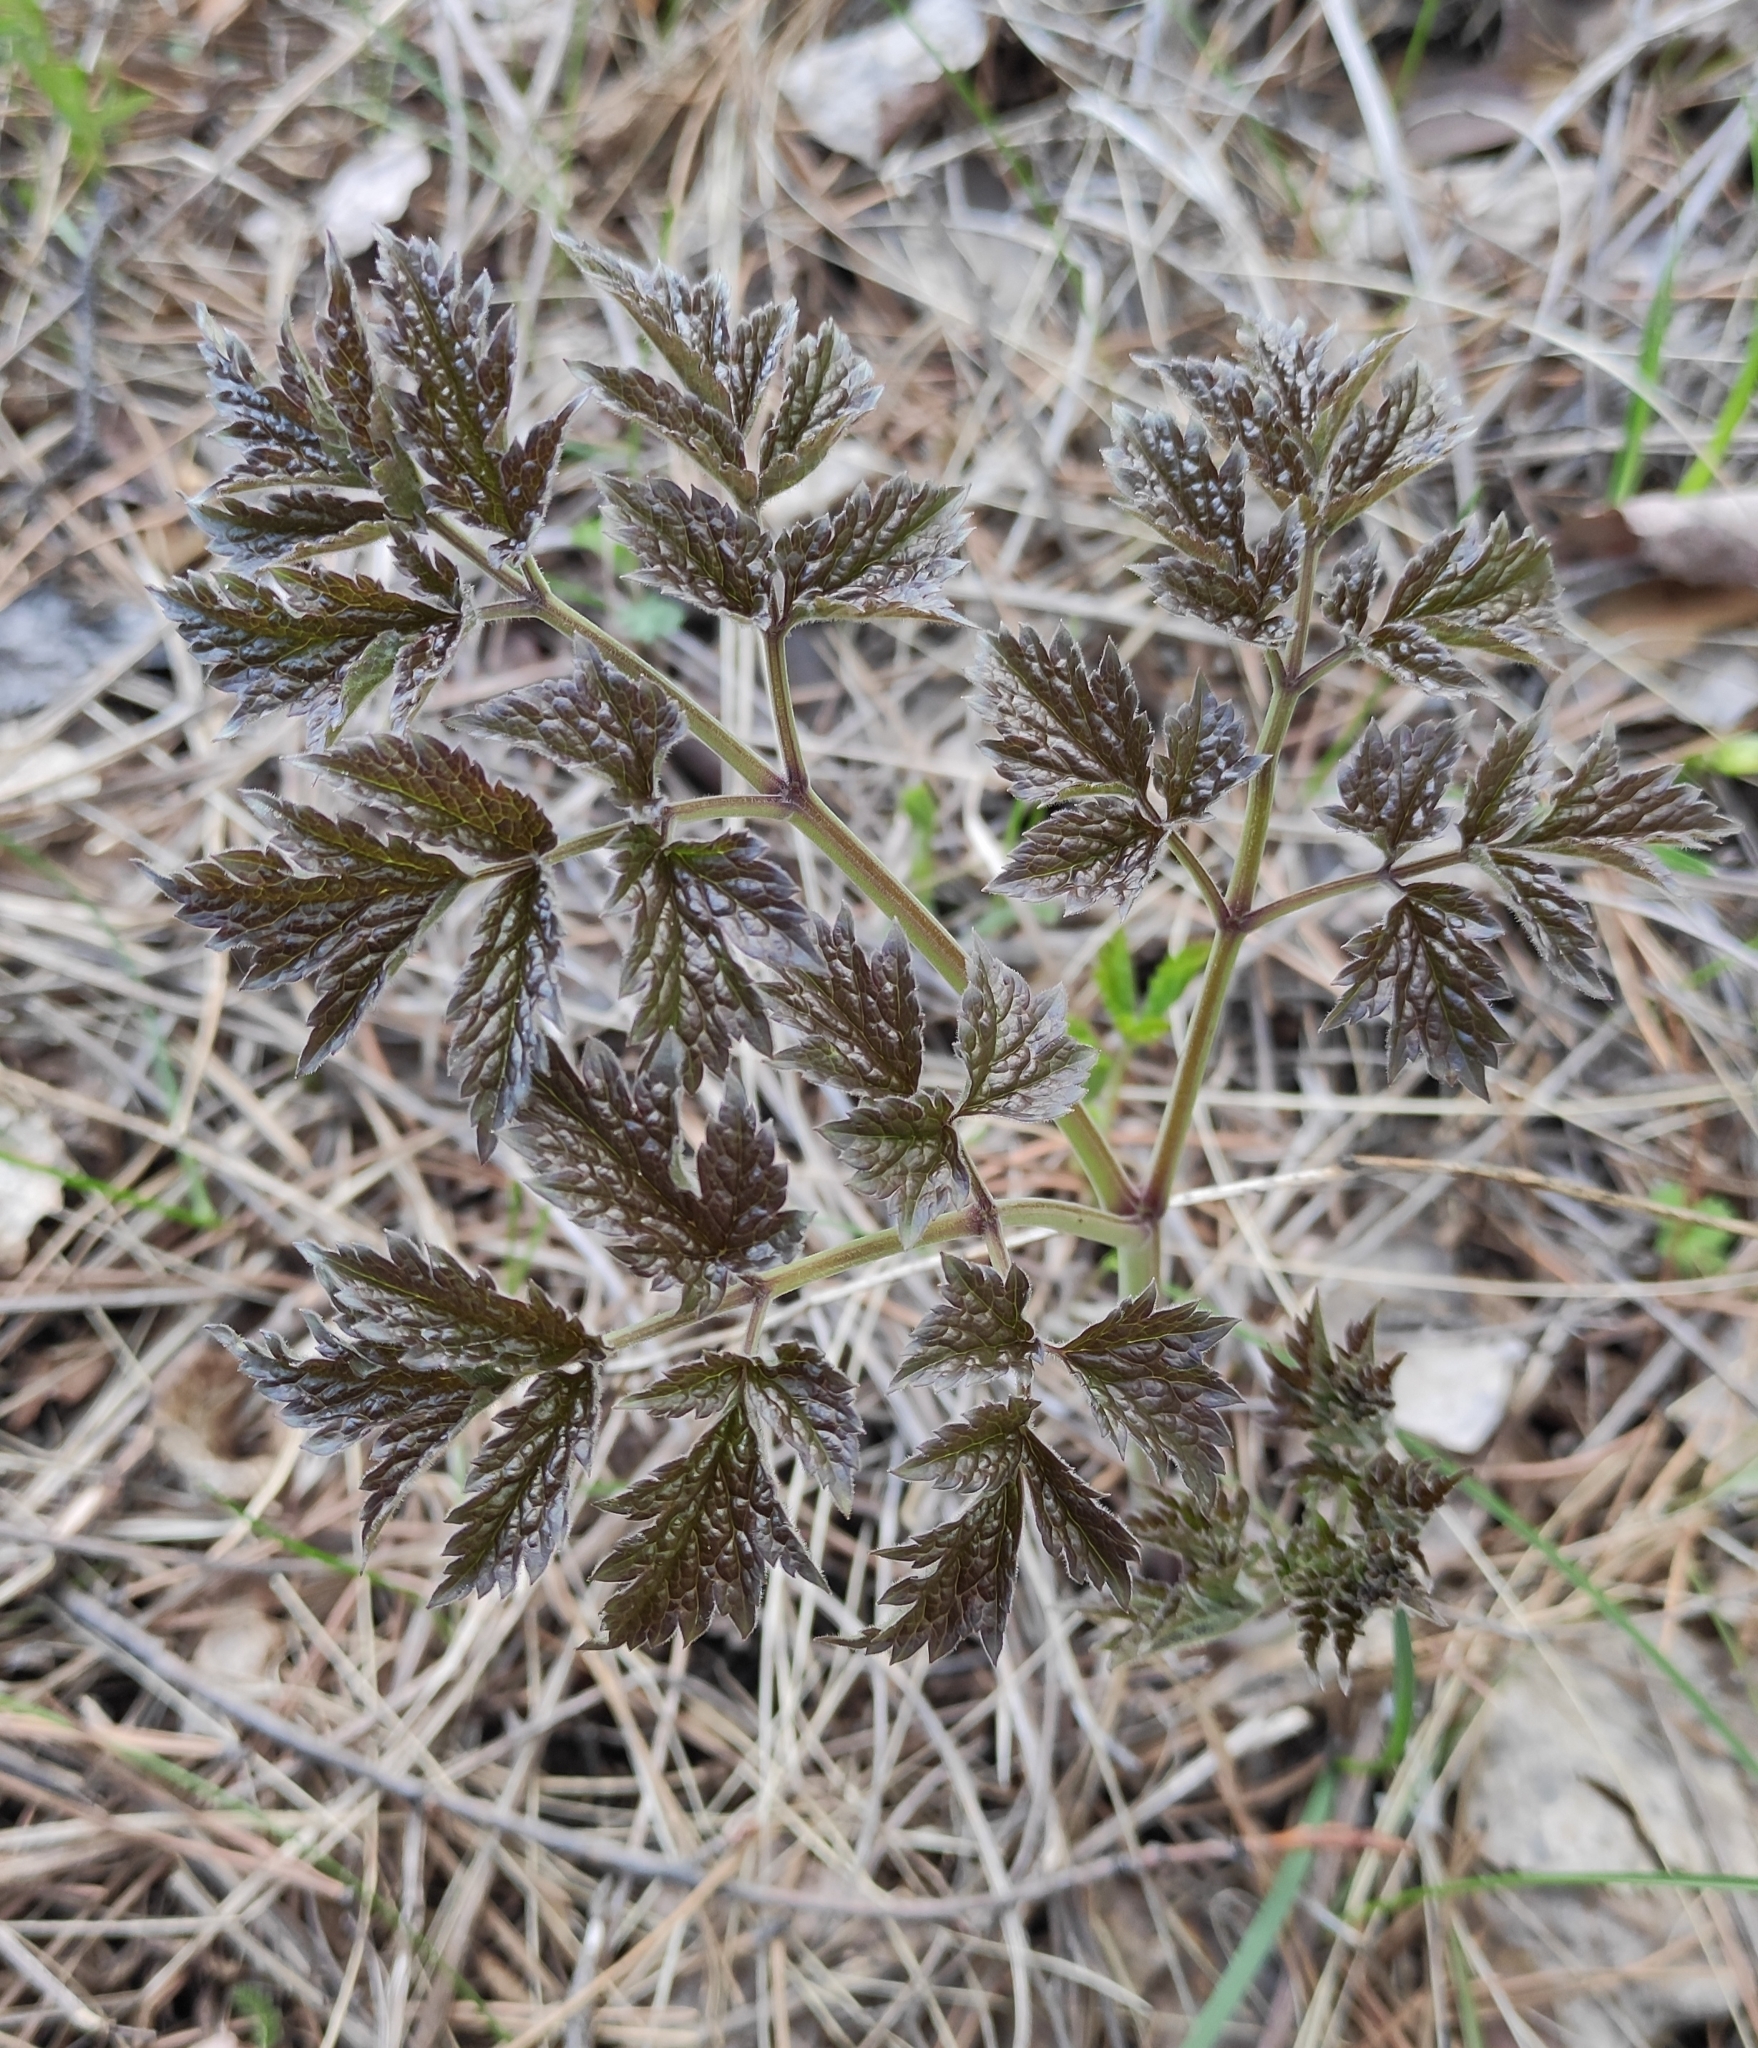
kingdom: Plantae
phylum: Tracheophyta
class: Magnoliopsida
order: Ranunculales
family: Ranunculaceae
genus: Actaea
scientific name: Actaea cimicifuga
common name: Chinese cimicifuga
